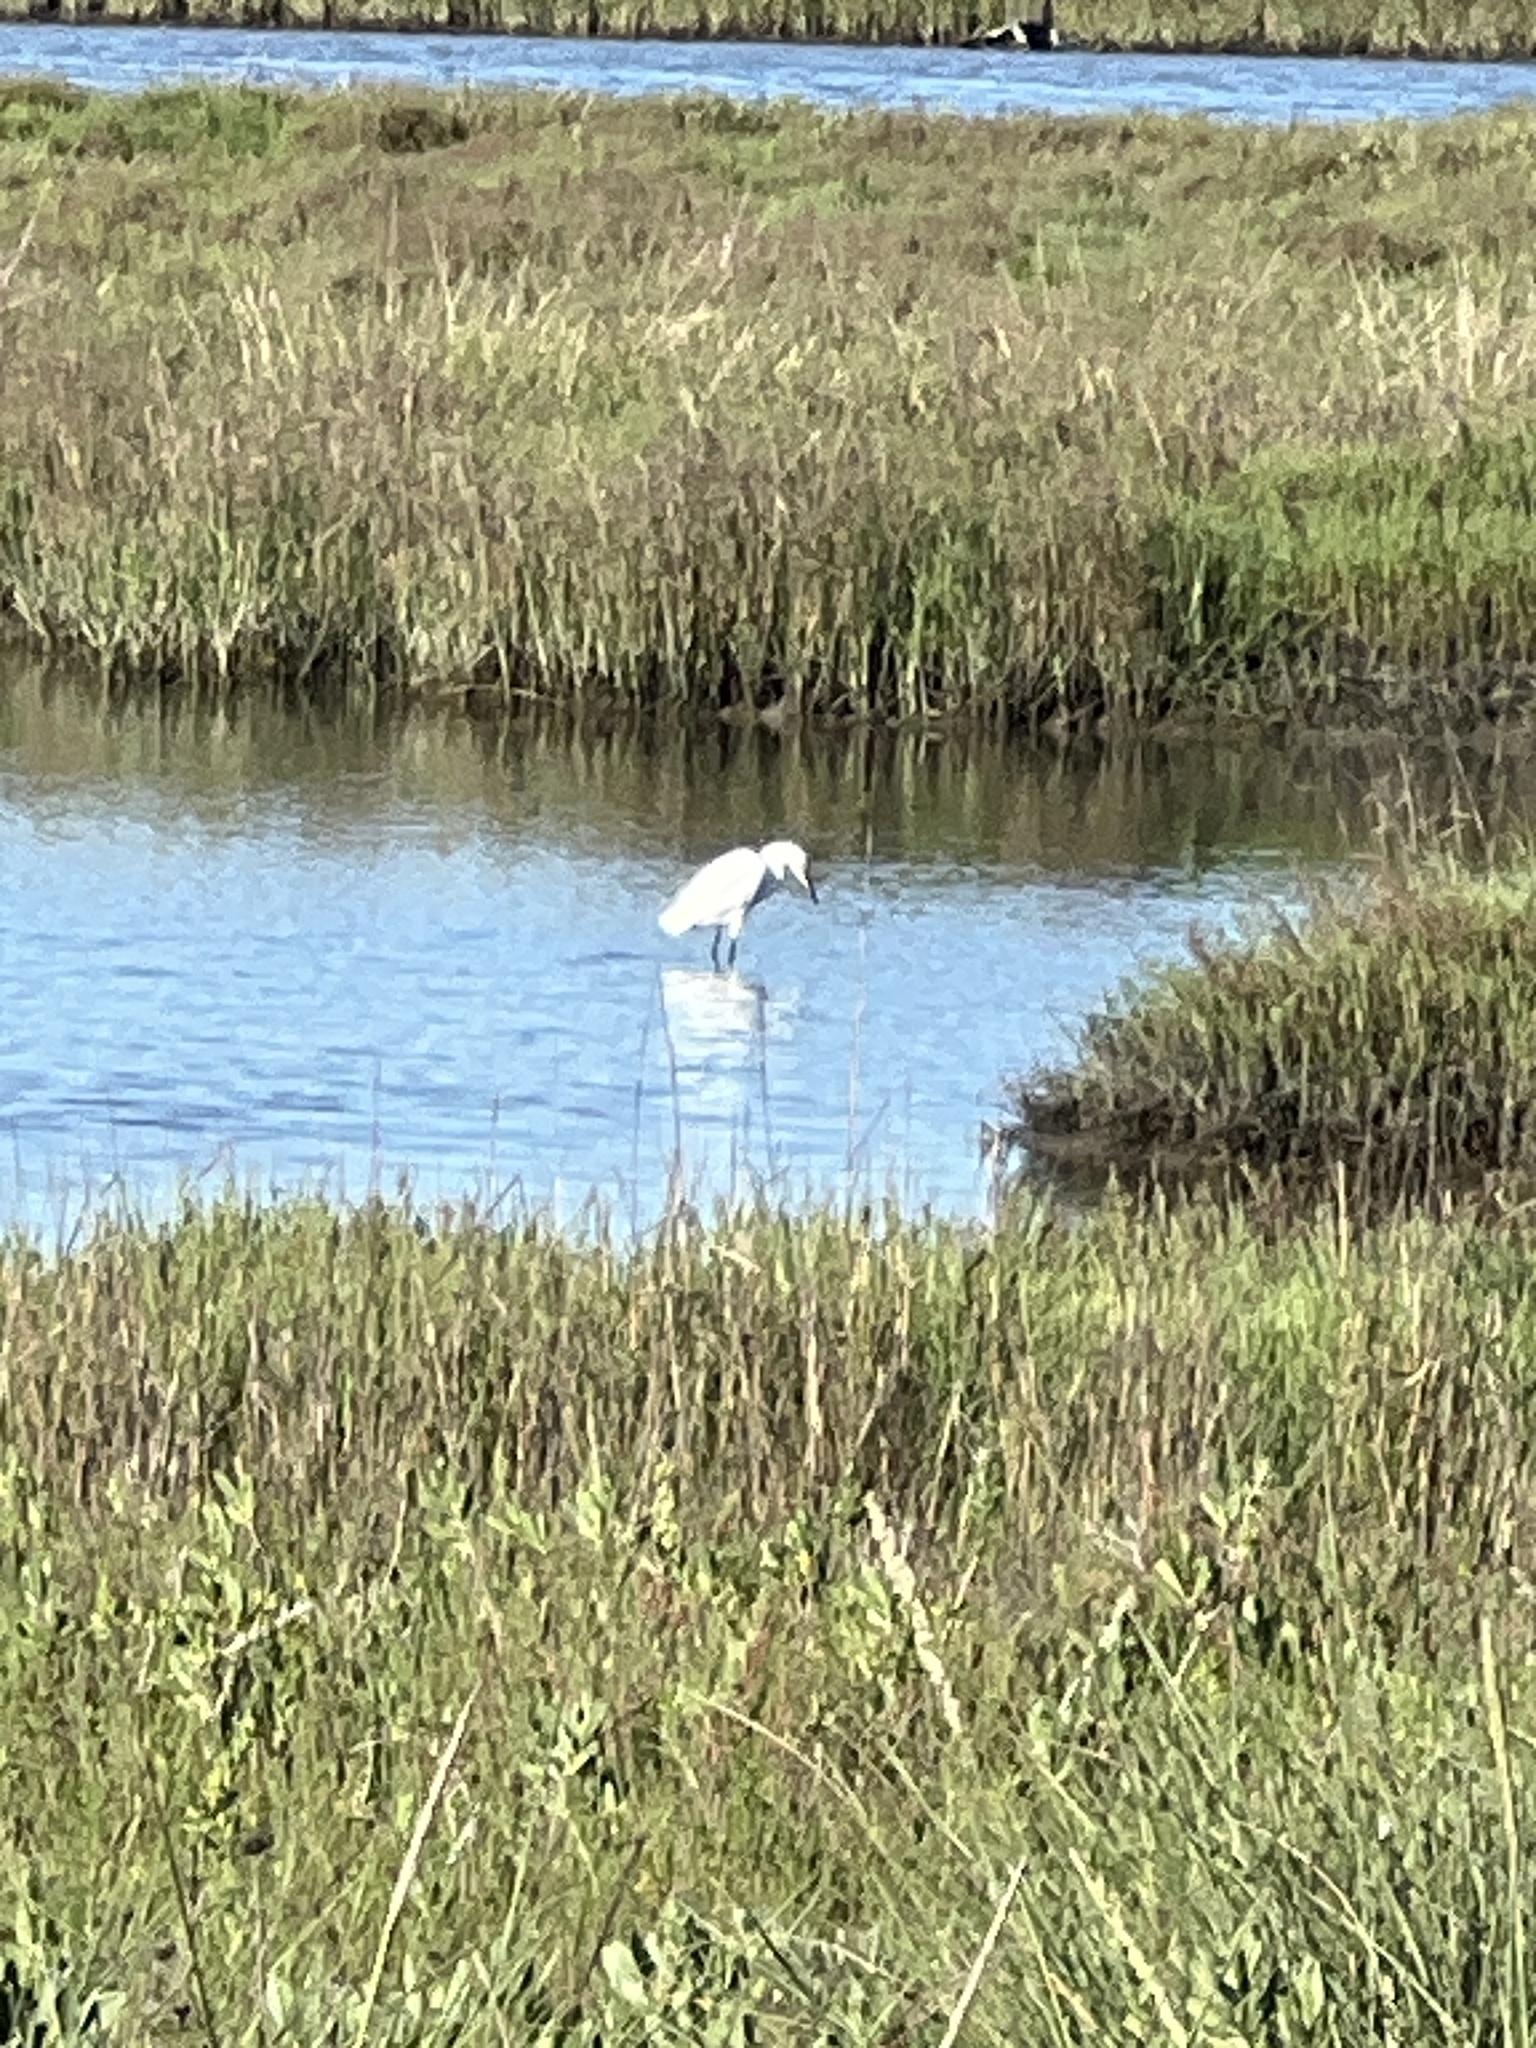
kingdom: Animalia
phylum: Chordata
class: Aves
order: Pelecaniformes
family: Ardeidae
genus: Egretta
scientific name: Egretta thula
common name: Snowy egret
